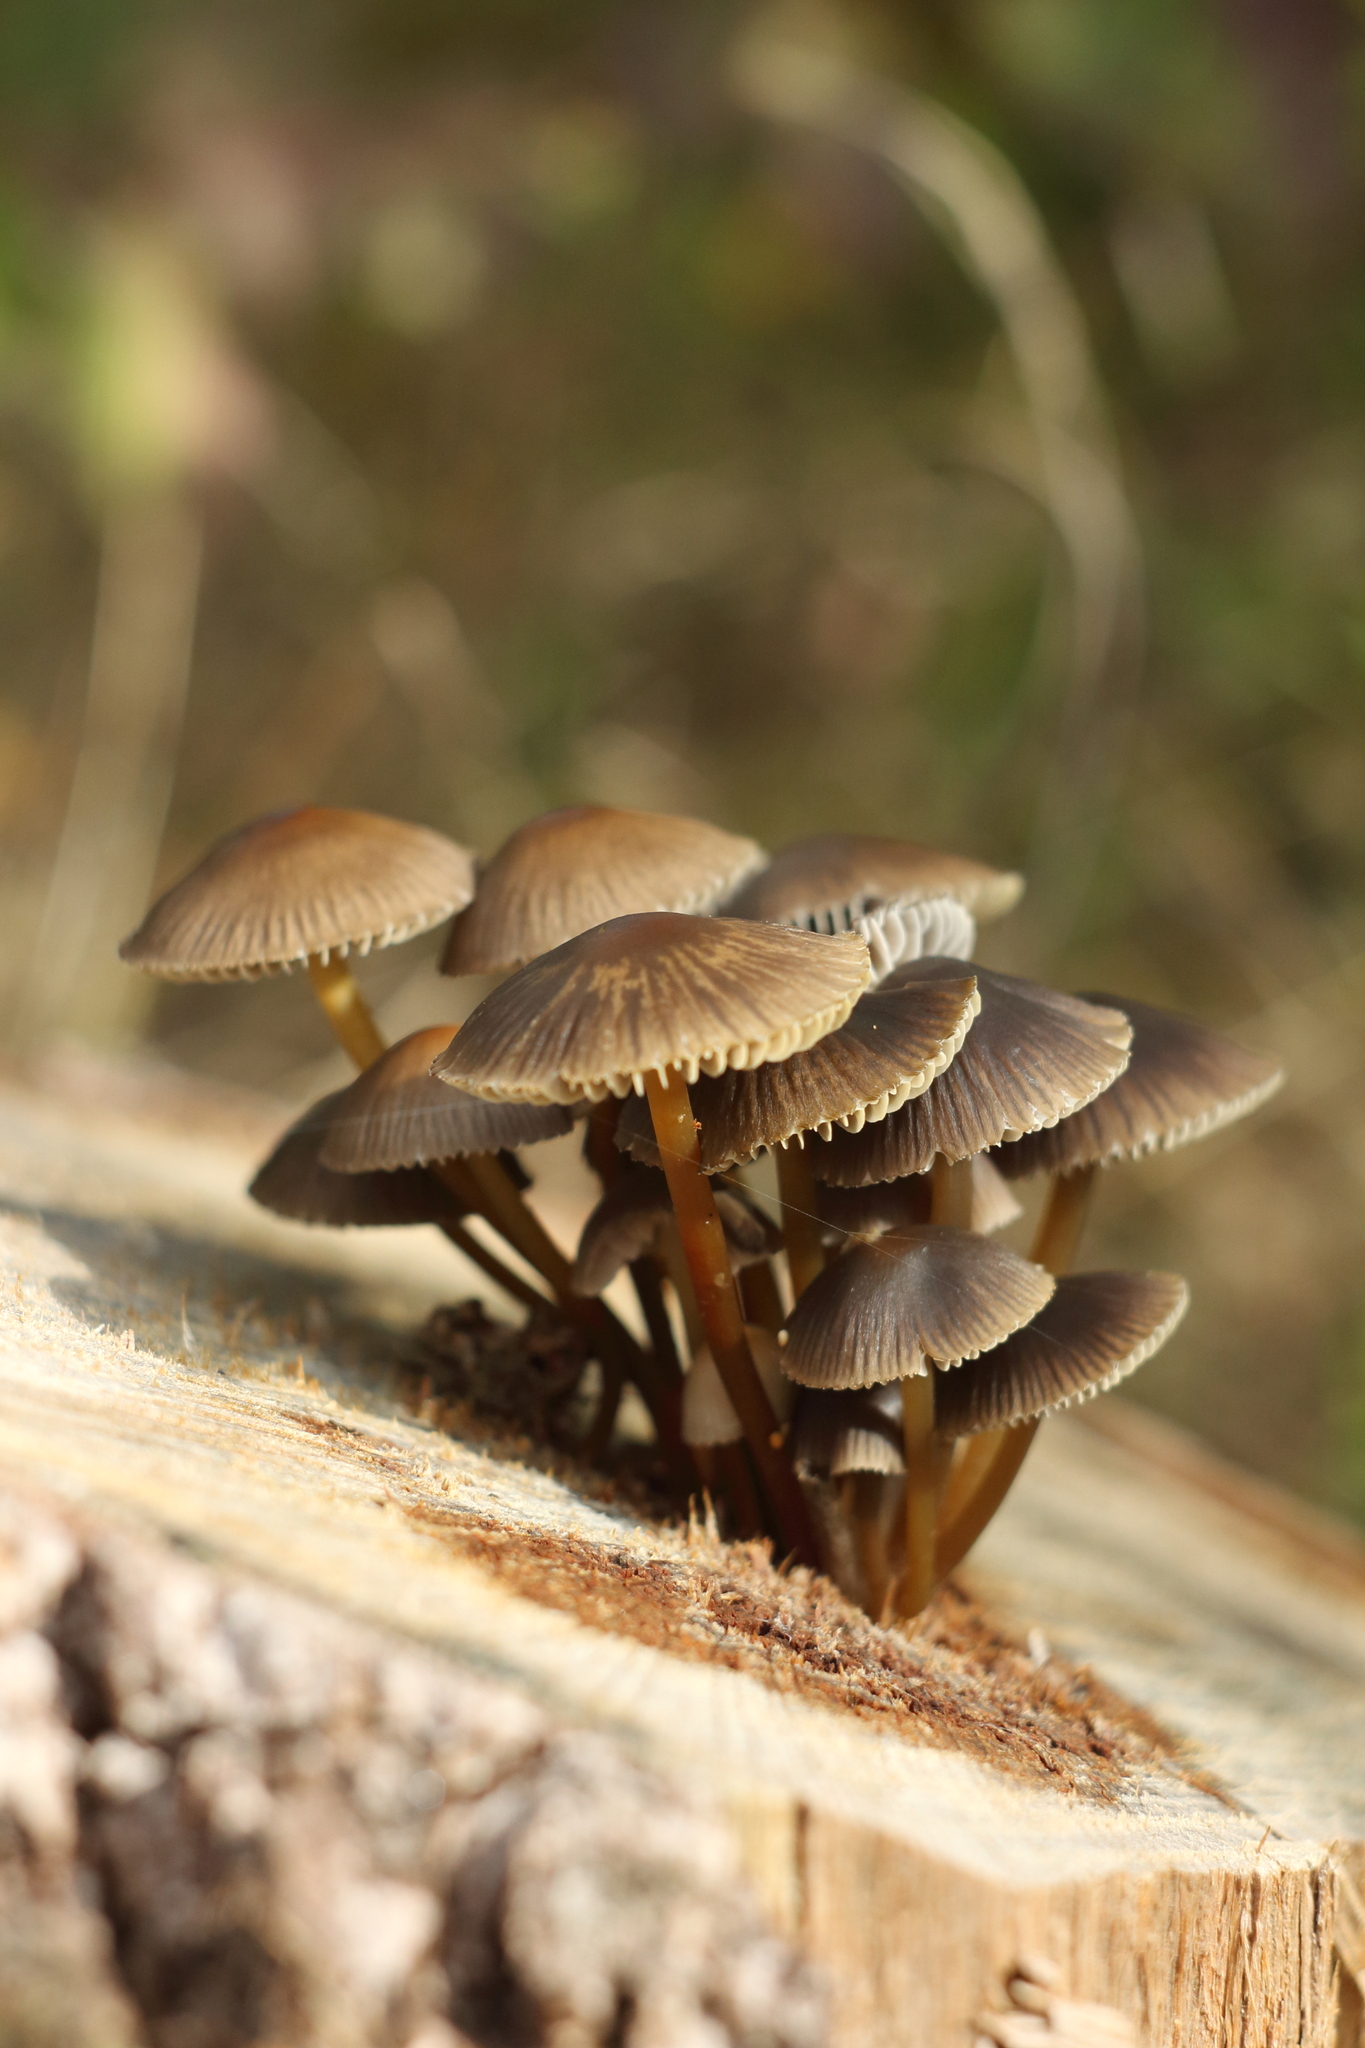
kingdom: Fungi
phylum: Basidiomycota
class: Agaricomycetes
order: Agaricales
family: Mycenaceae
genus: Mycena
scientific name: Mycena inclinata
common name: Clustered bonnet
